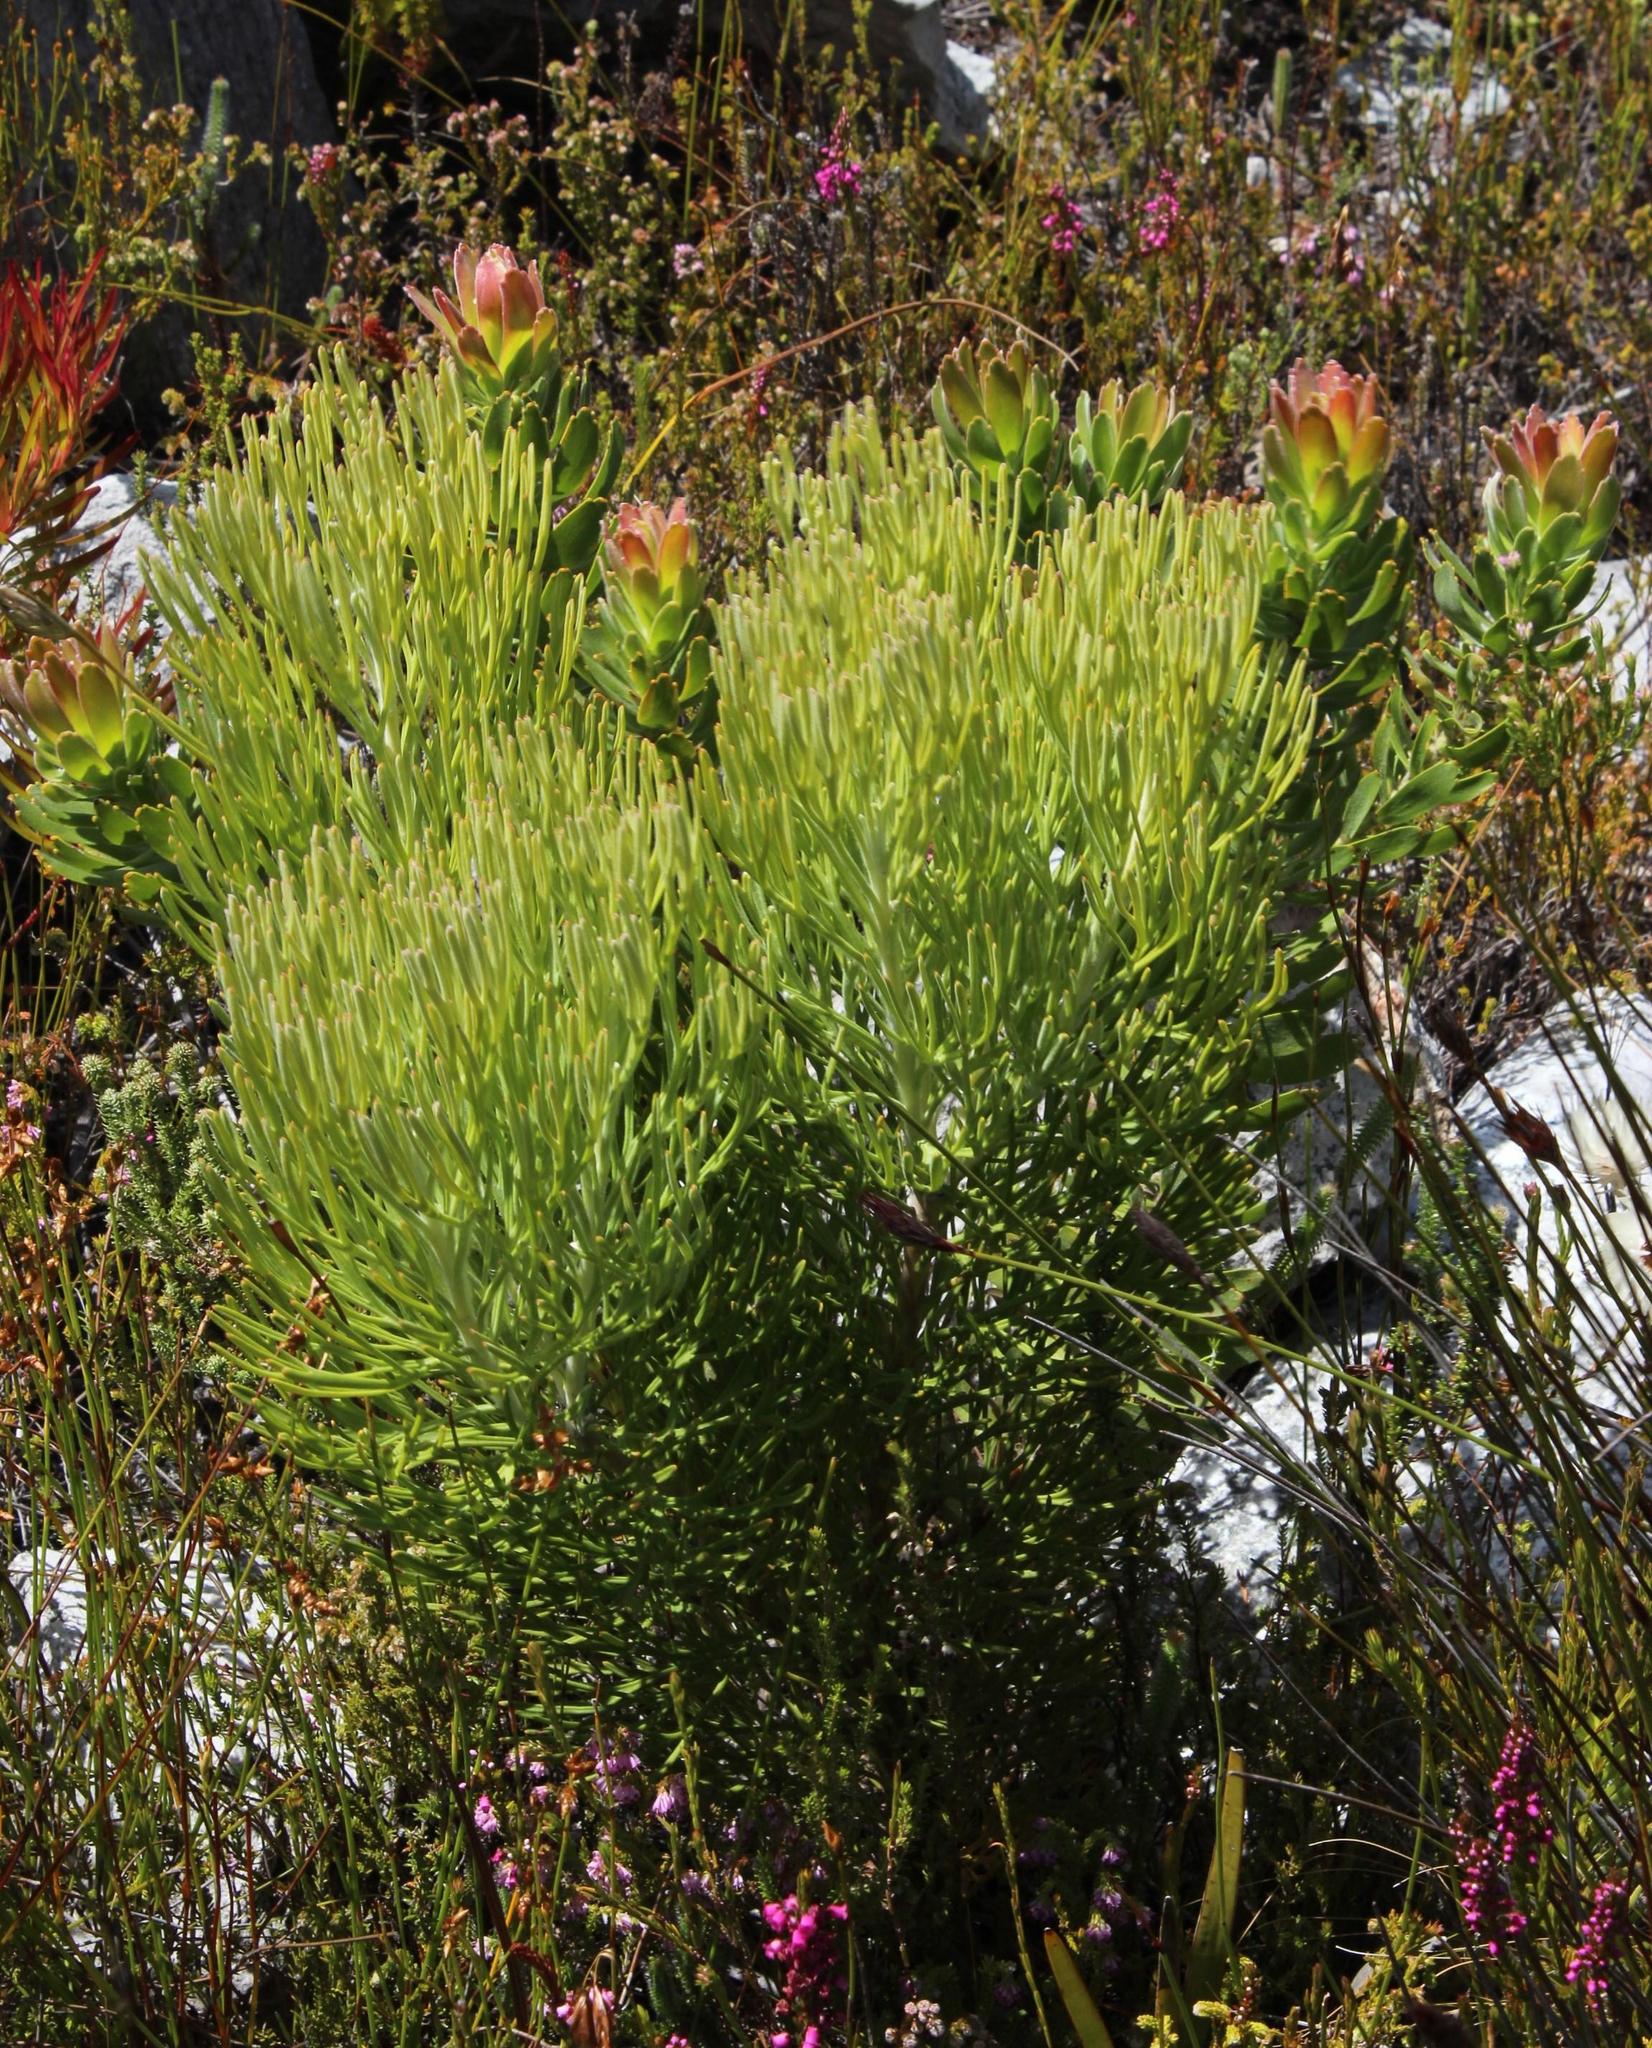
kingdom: Plantae
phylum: Tracheophyta
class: Magnoliopsida
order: Proteales
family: Proteaceae
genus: Paranomus
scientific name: Paranomus spicatus
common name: Kogelberg sceptre
